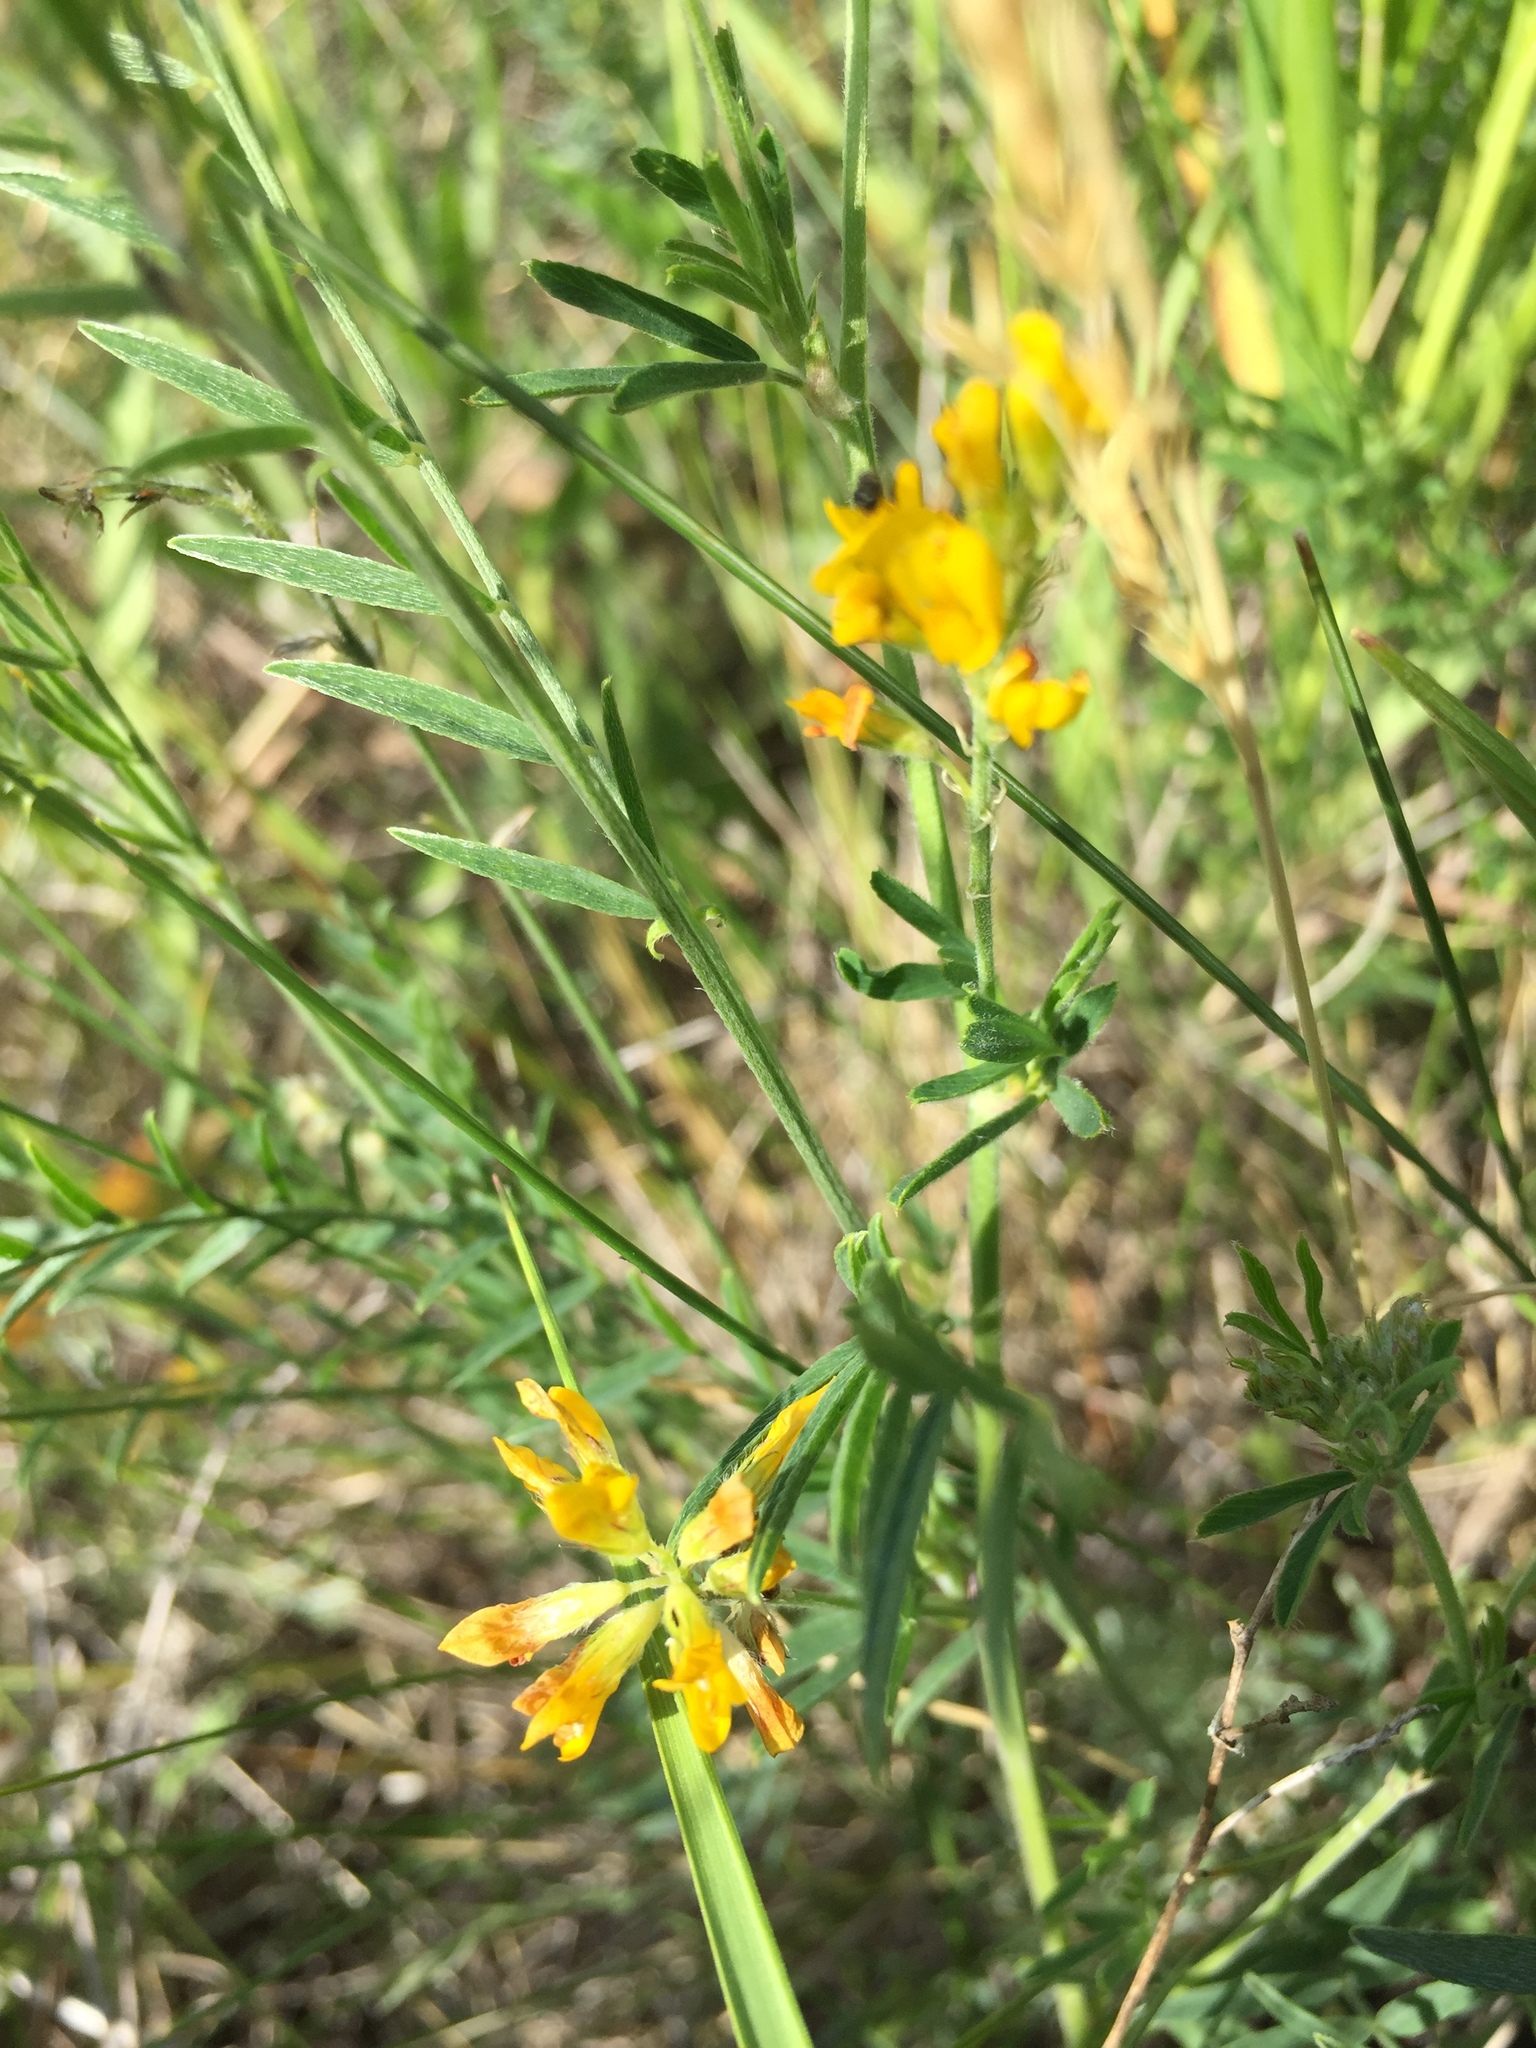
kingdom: Plantae
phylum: Tracheophyta
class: Magnoliopsida
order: Fabales
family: Fabaceae
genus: Medicago
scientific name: Medicago falcata
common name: Sickle medick
